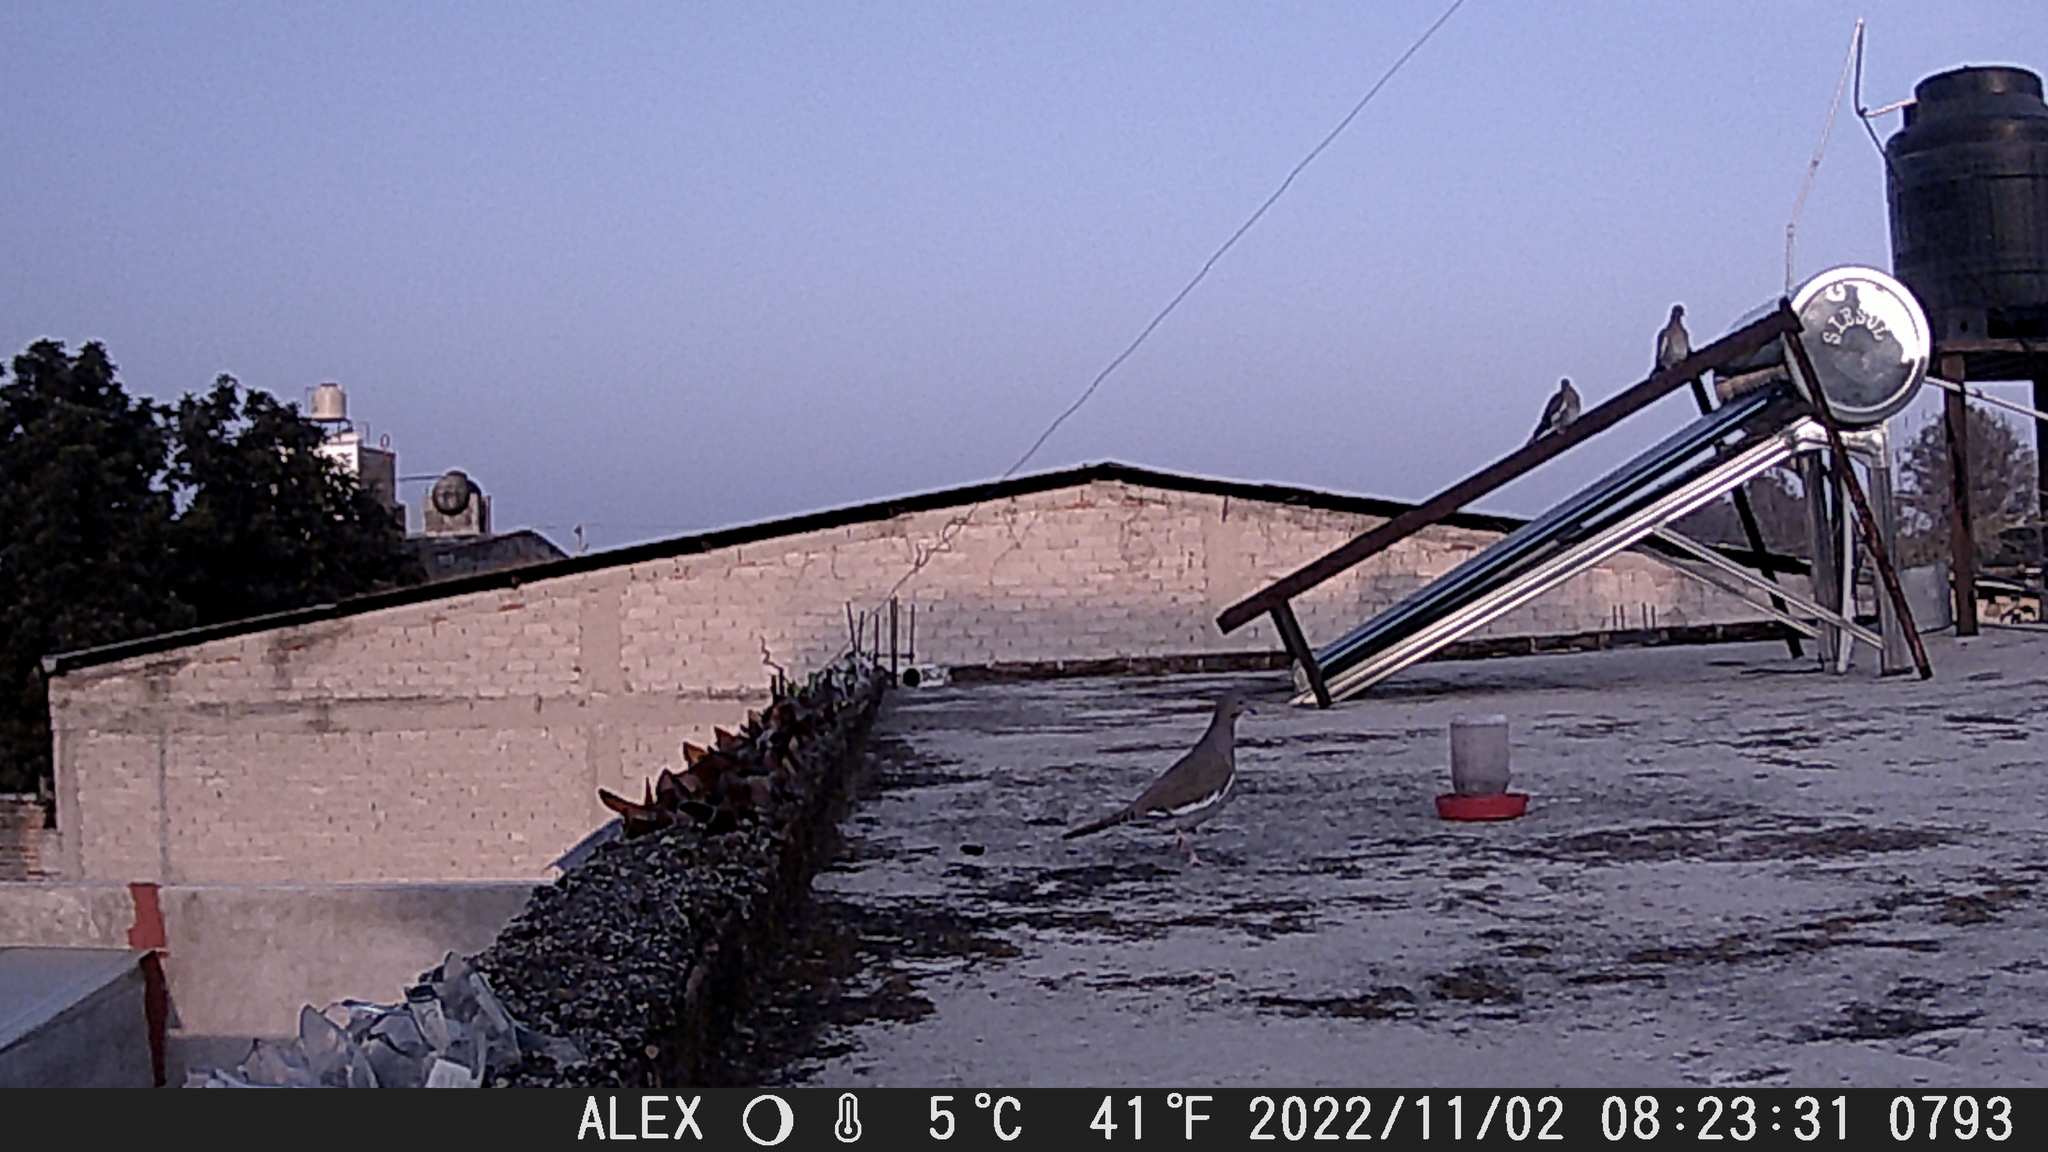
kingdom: Animalia
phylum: Chordata
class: Aves
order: Columbiformes
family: Columbidae
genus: Zenaida
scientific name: Zenaida asiatica
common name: White-winged dove
